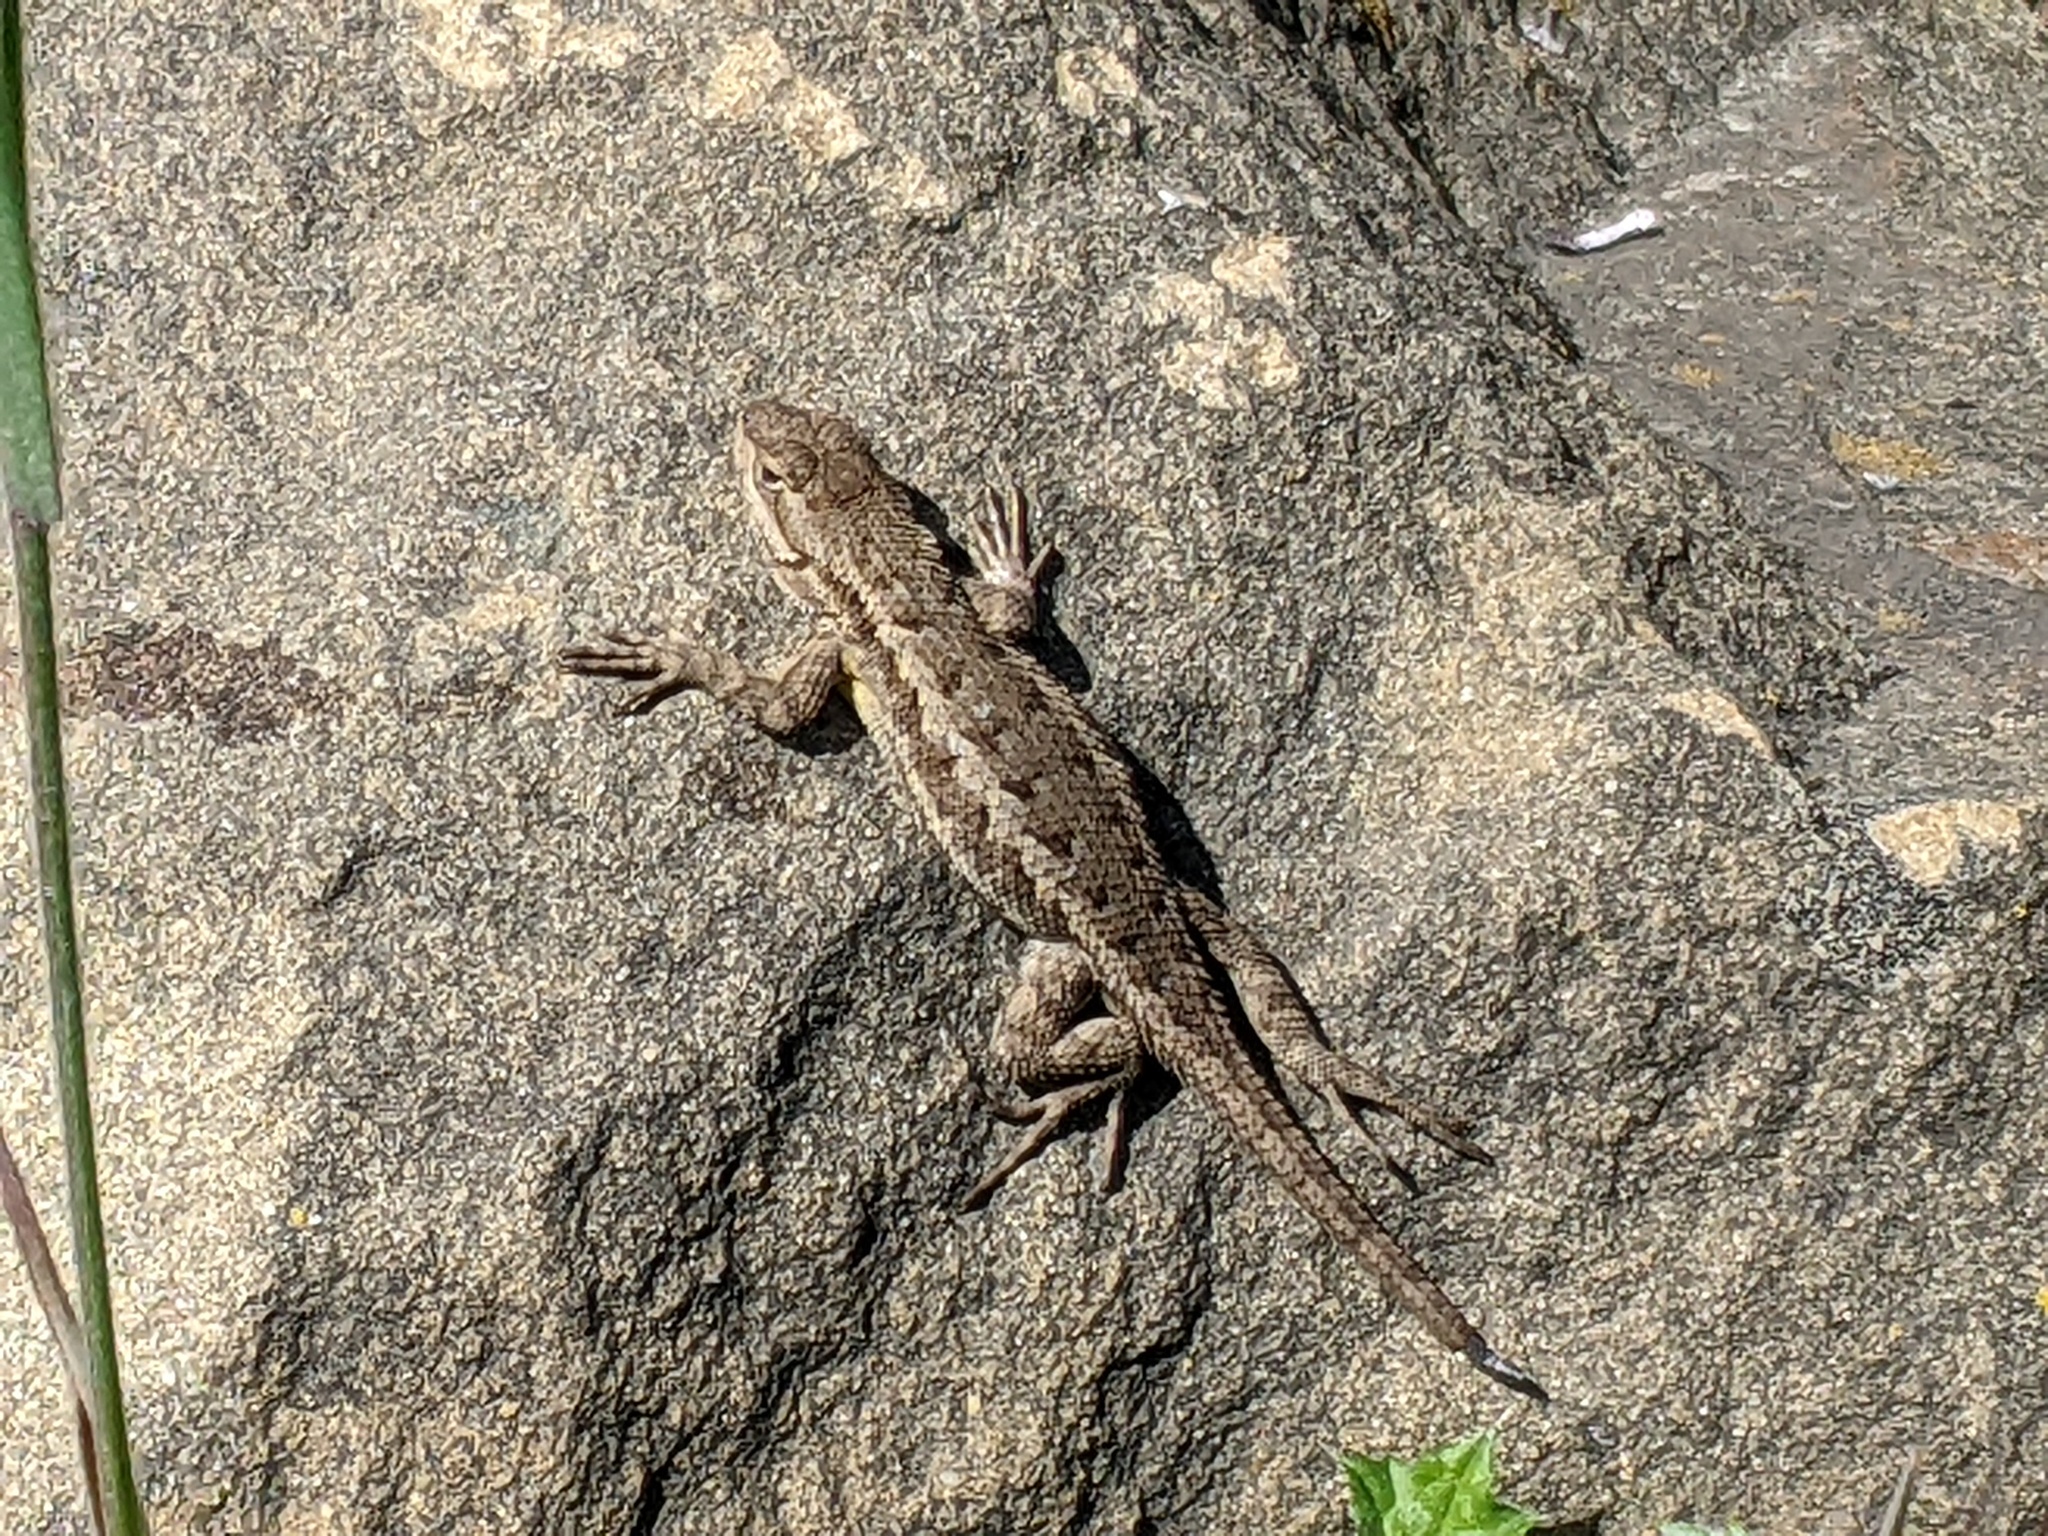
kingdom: Animalia
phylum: Chordata
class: Squamata
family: Phrynosomatidae
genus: Sceloporus
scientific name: Sceloporus occidentalis
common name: Western fence lizard
